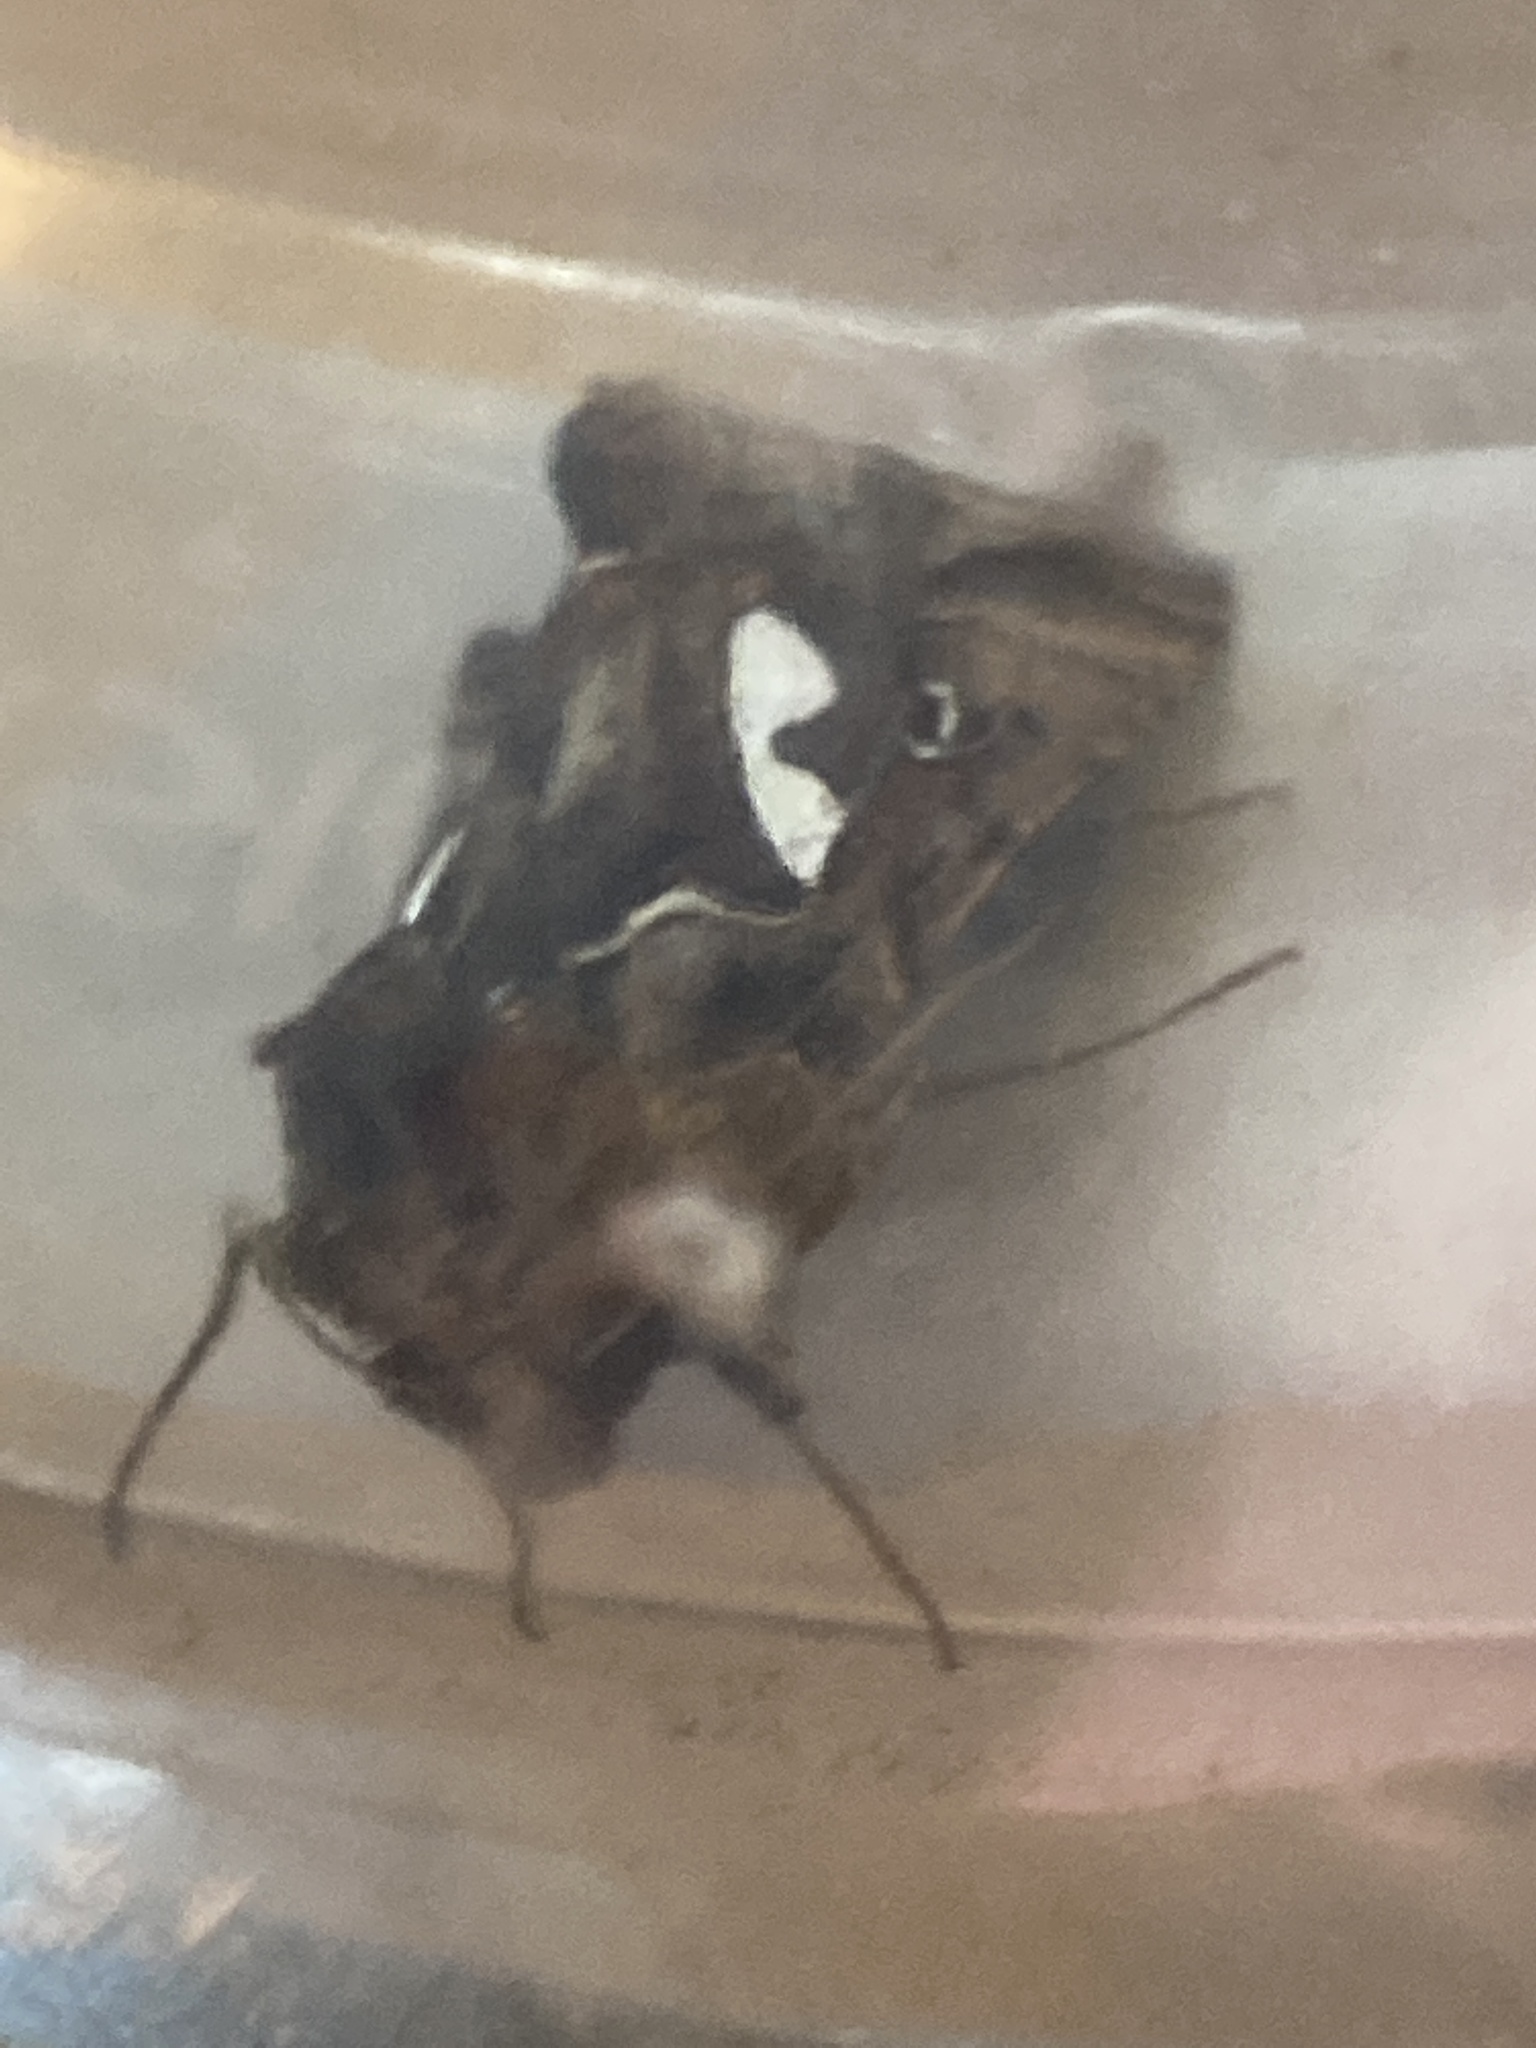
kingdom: Animalia
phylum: Arthropoda
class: Insecta
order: Lepidoptera
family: Noctuidae
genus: Megalographa
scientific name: Megalographa biloba
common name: Cutworm
